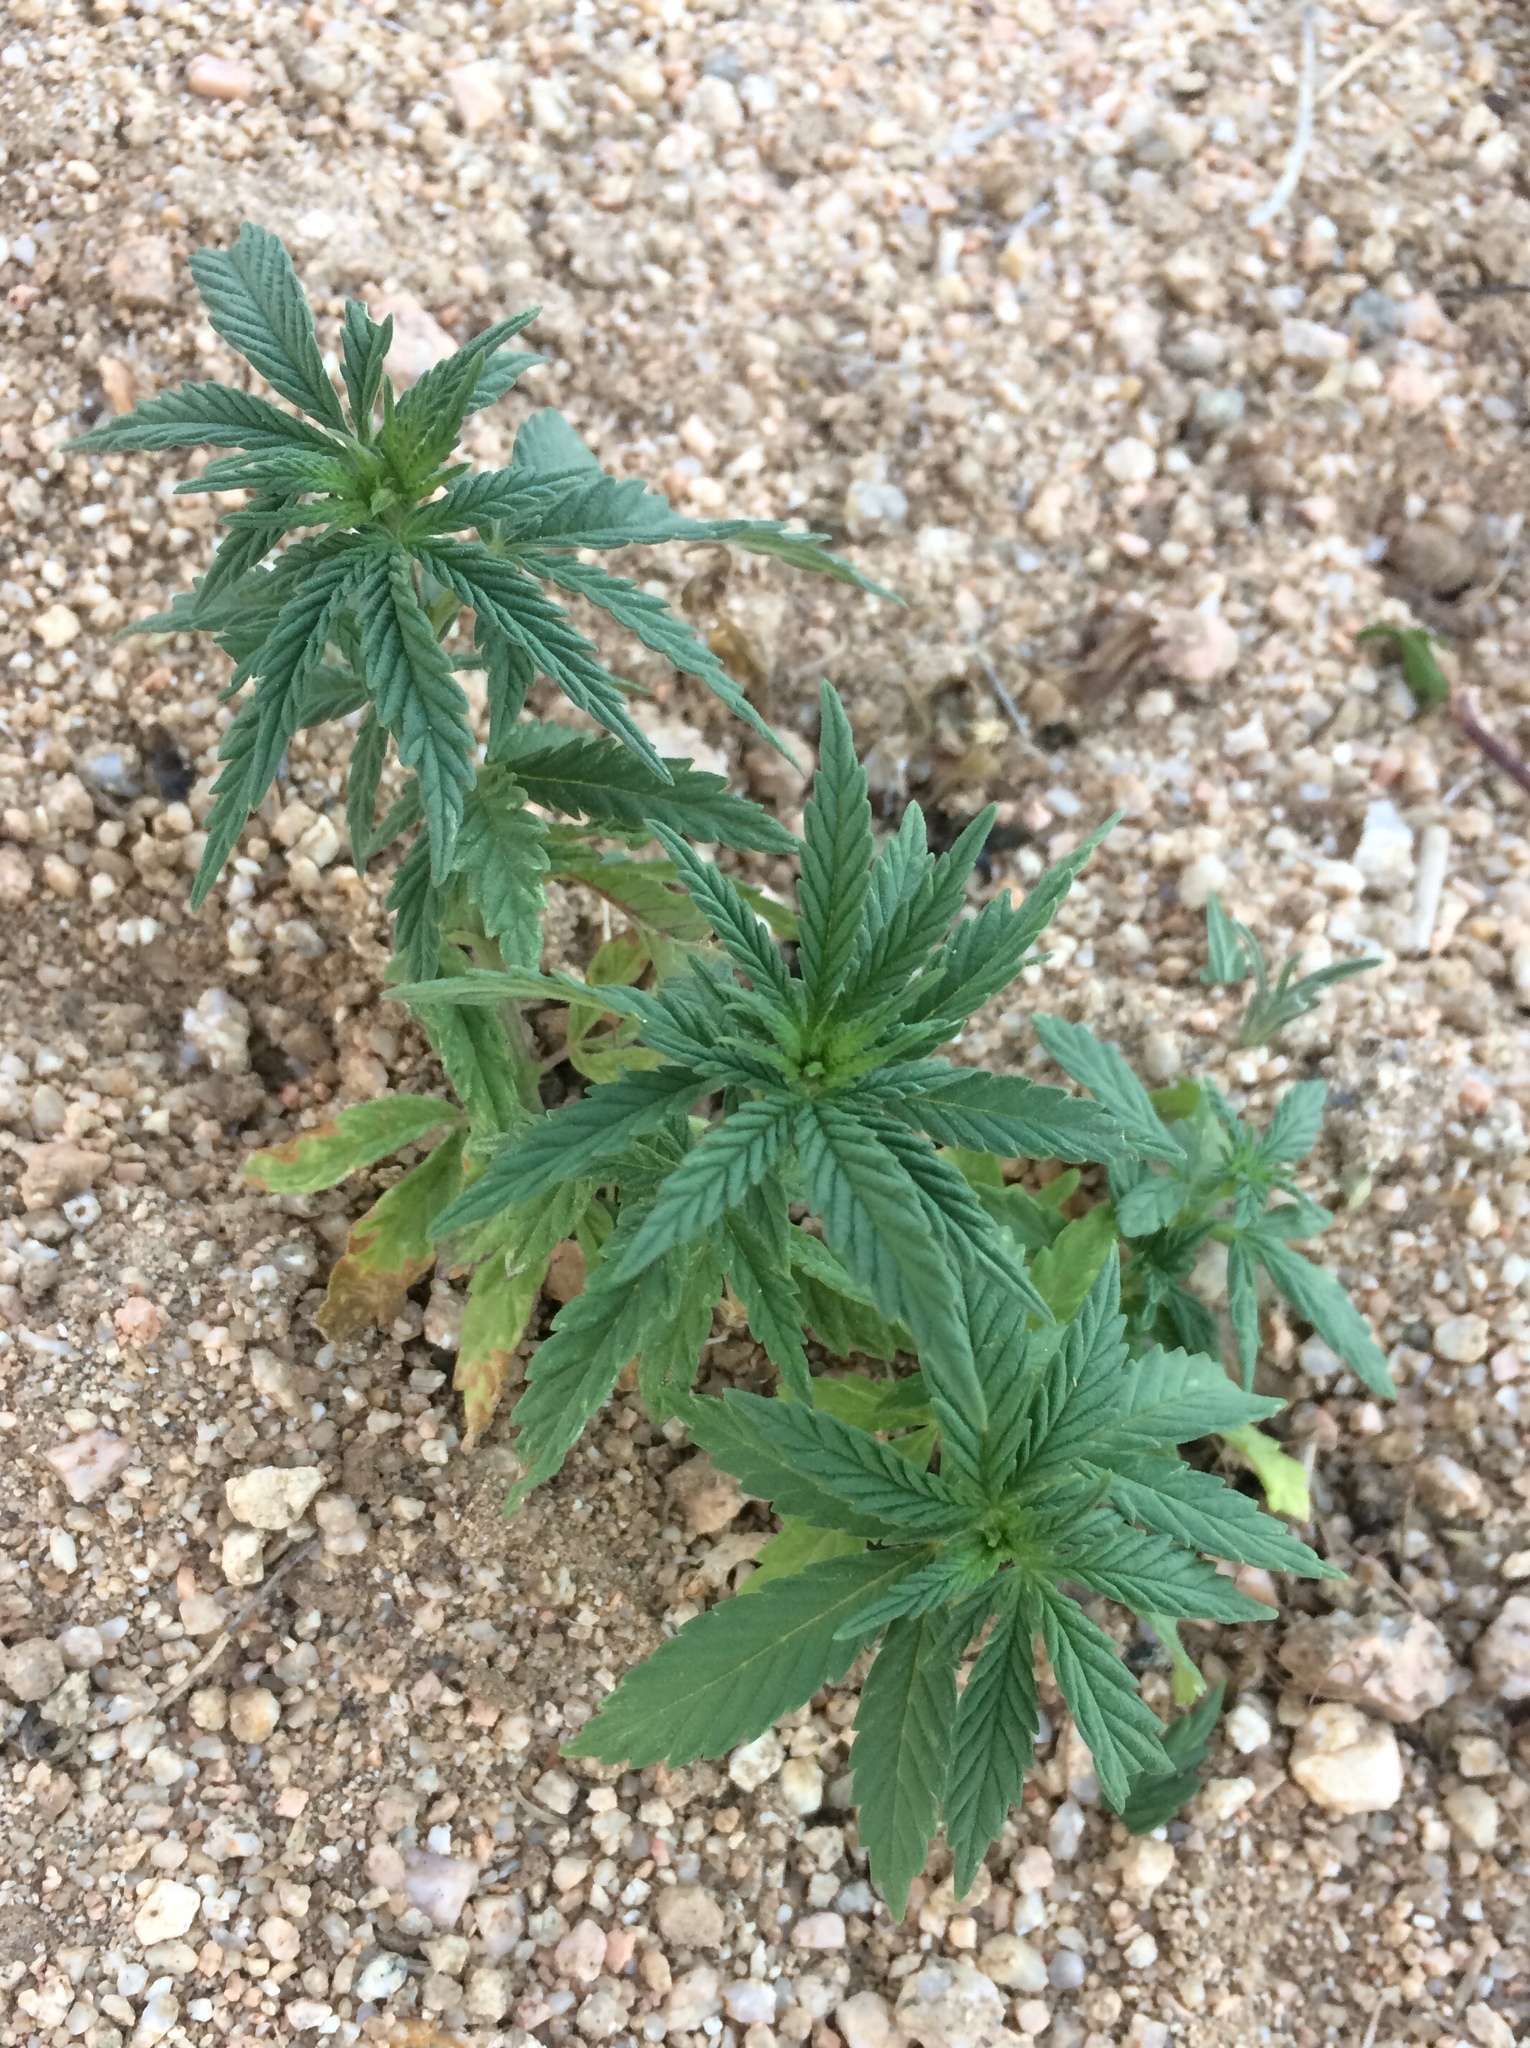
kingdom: Plantae
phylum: Tracheophyta
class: Magnoliopsida
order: Rosales
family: Cannabaceae
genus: Cannabis
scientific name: Cannabis sativa
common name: Hemp
